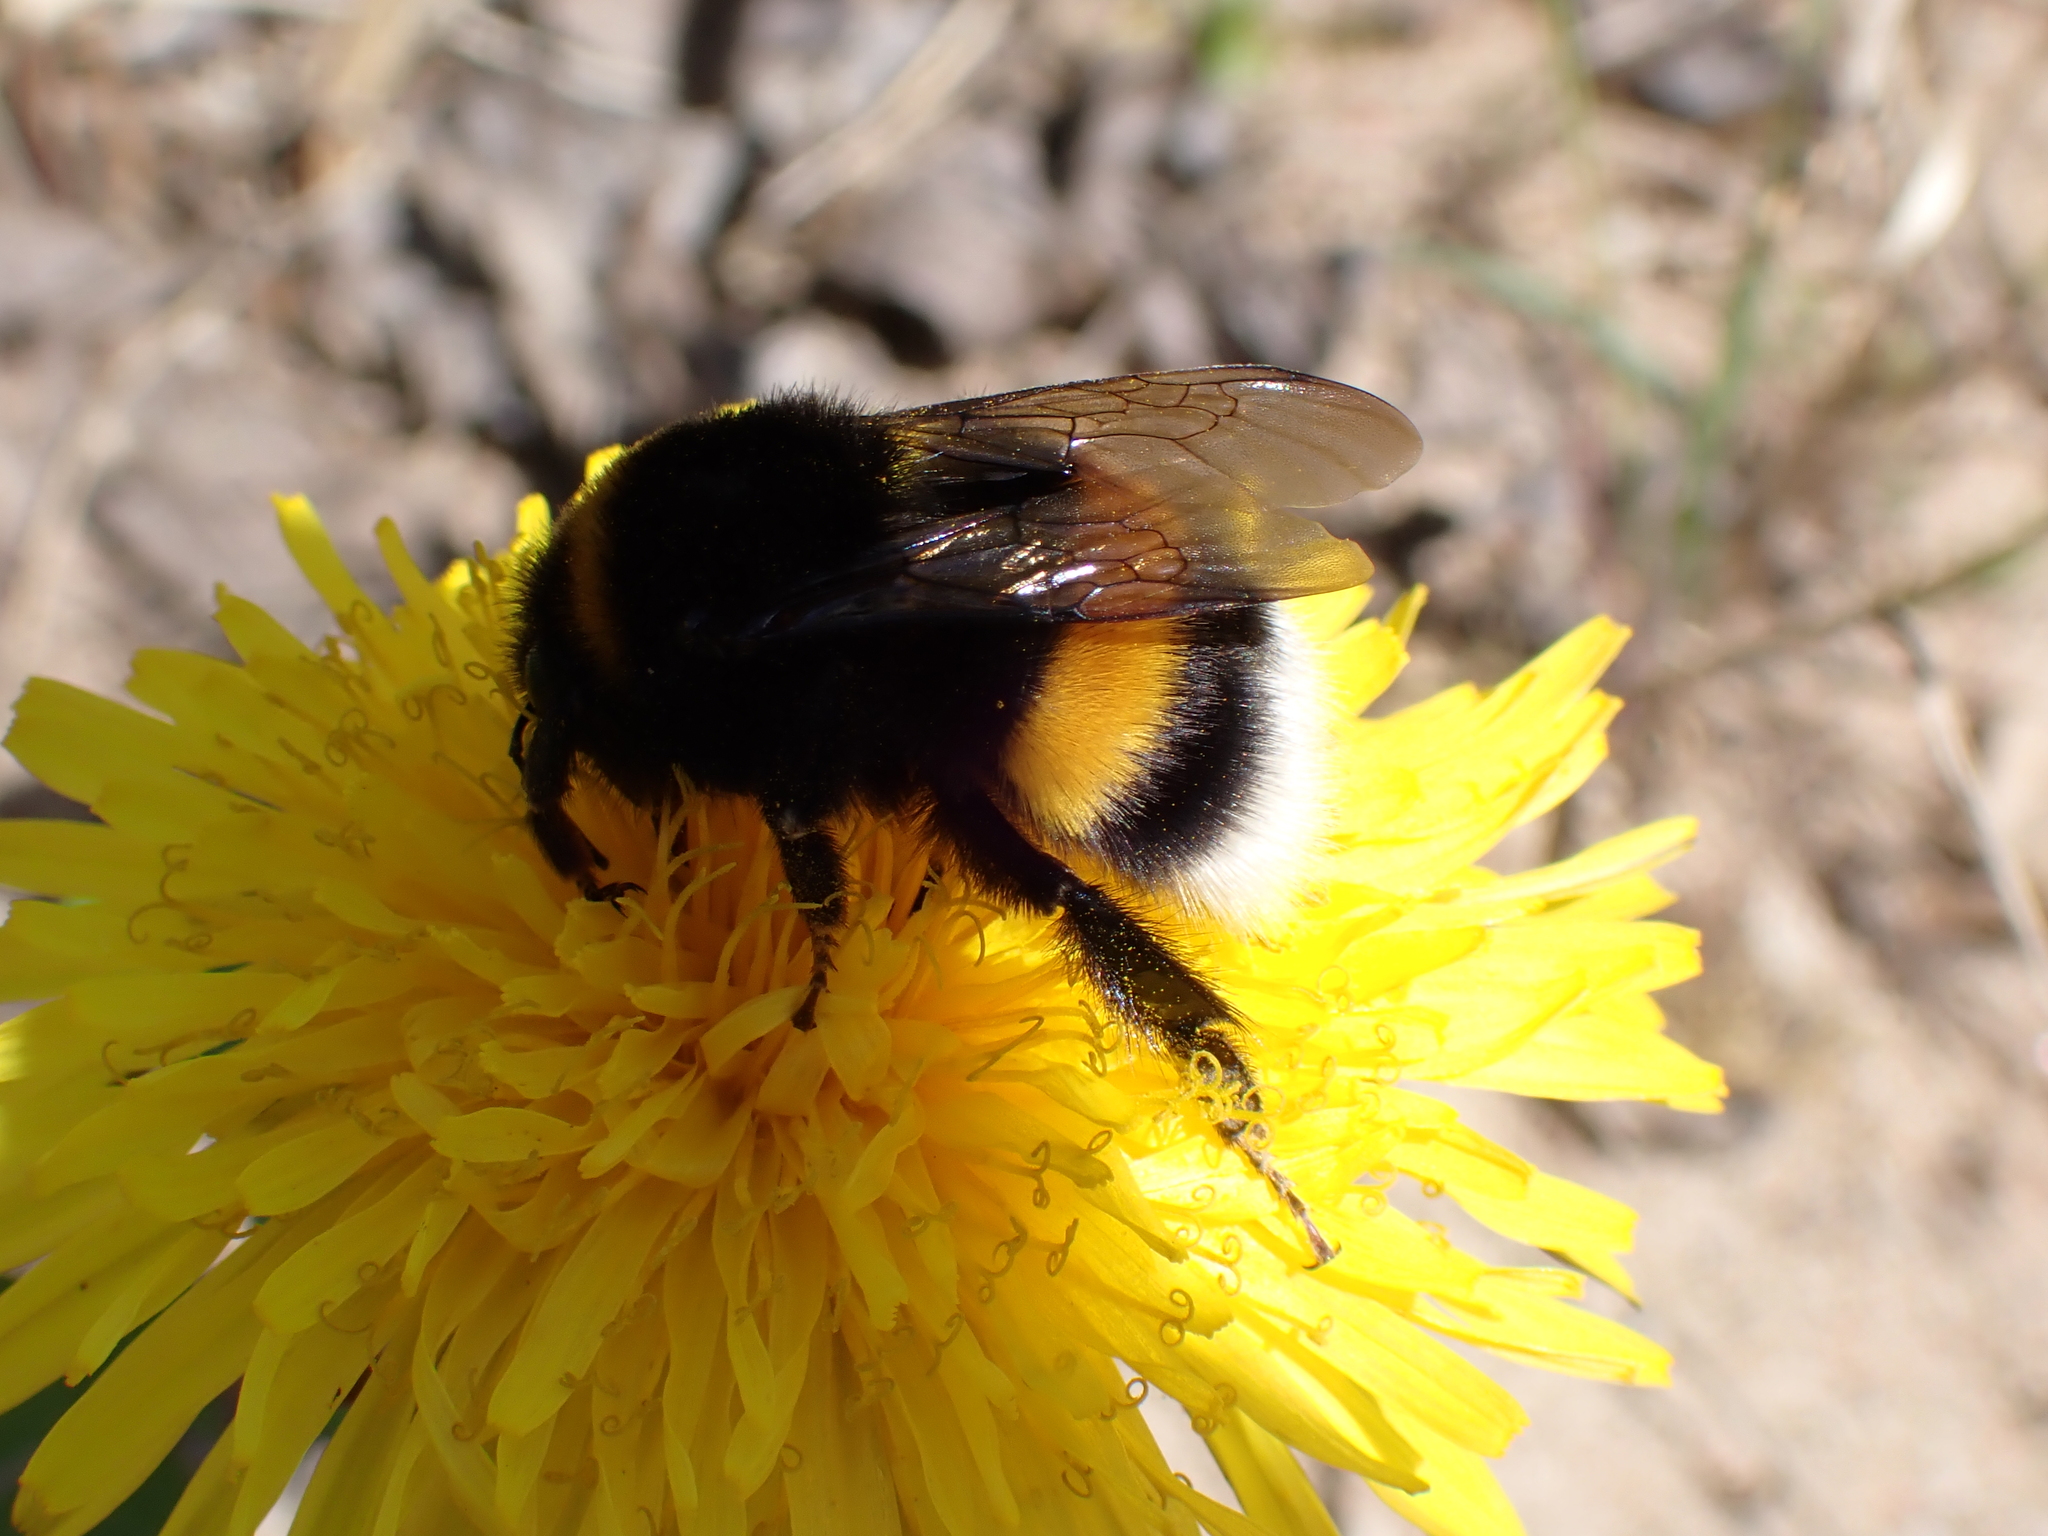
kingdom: Animalia
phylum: Arthropoda
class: Insecta
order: Hymenoptera
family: Apidae
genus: Bombus
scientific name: Bombus terrestris
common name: Buff-tailed bumblebee
